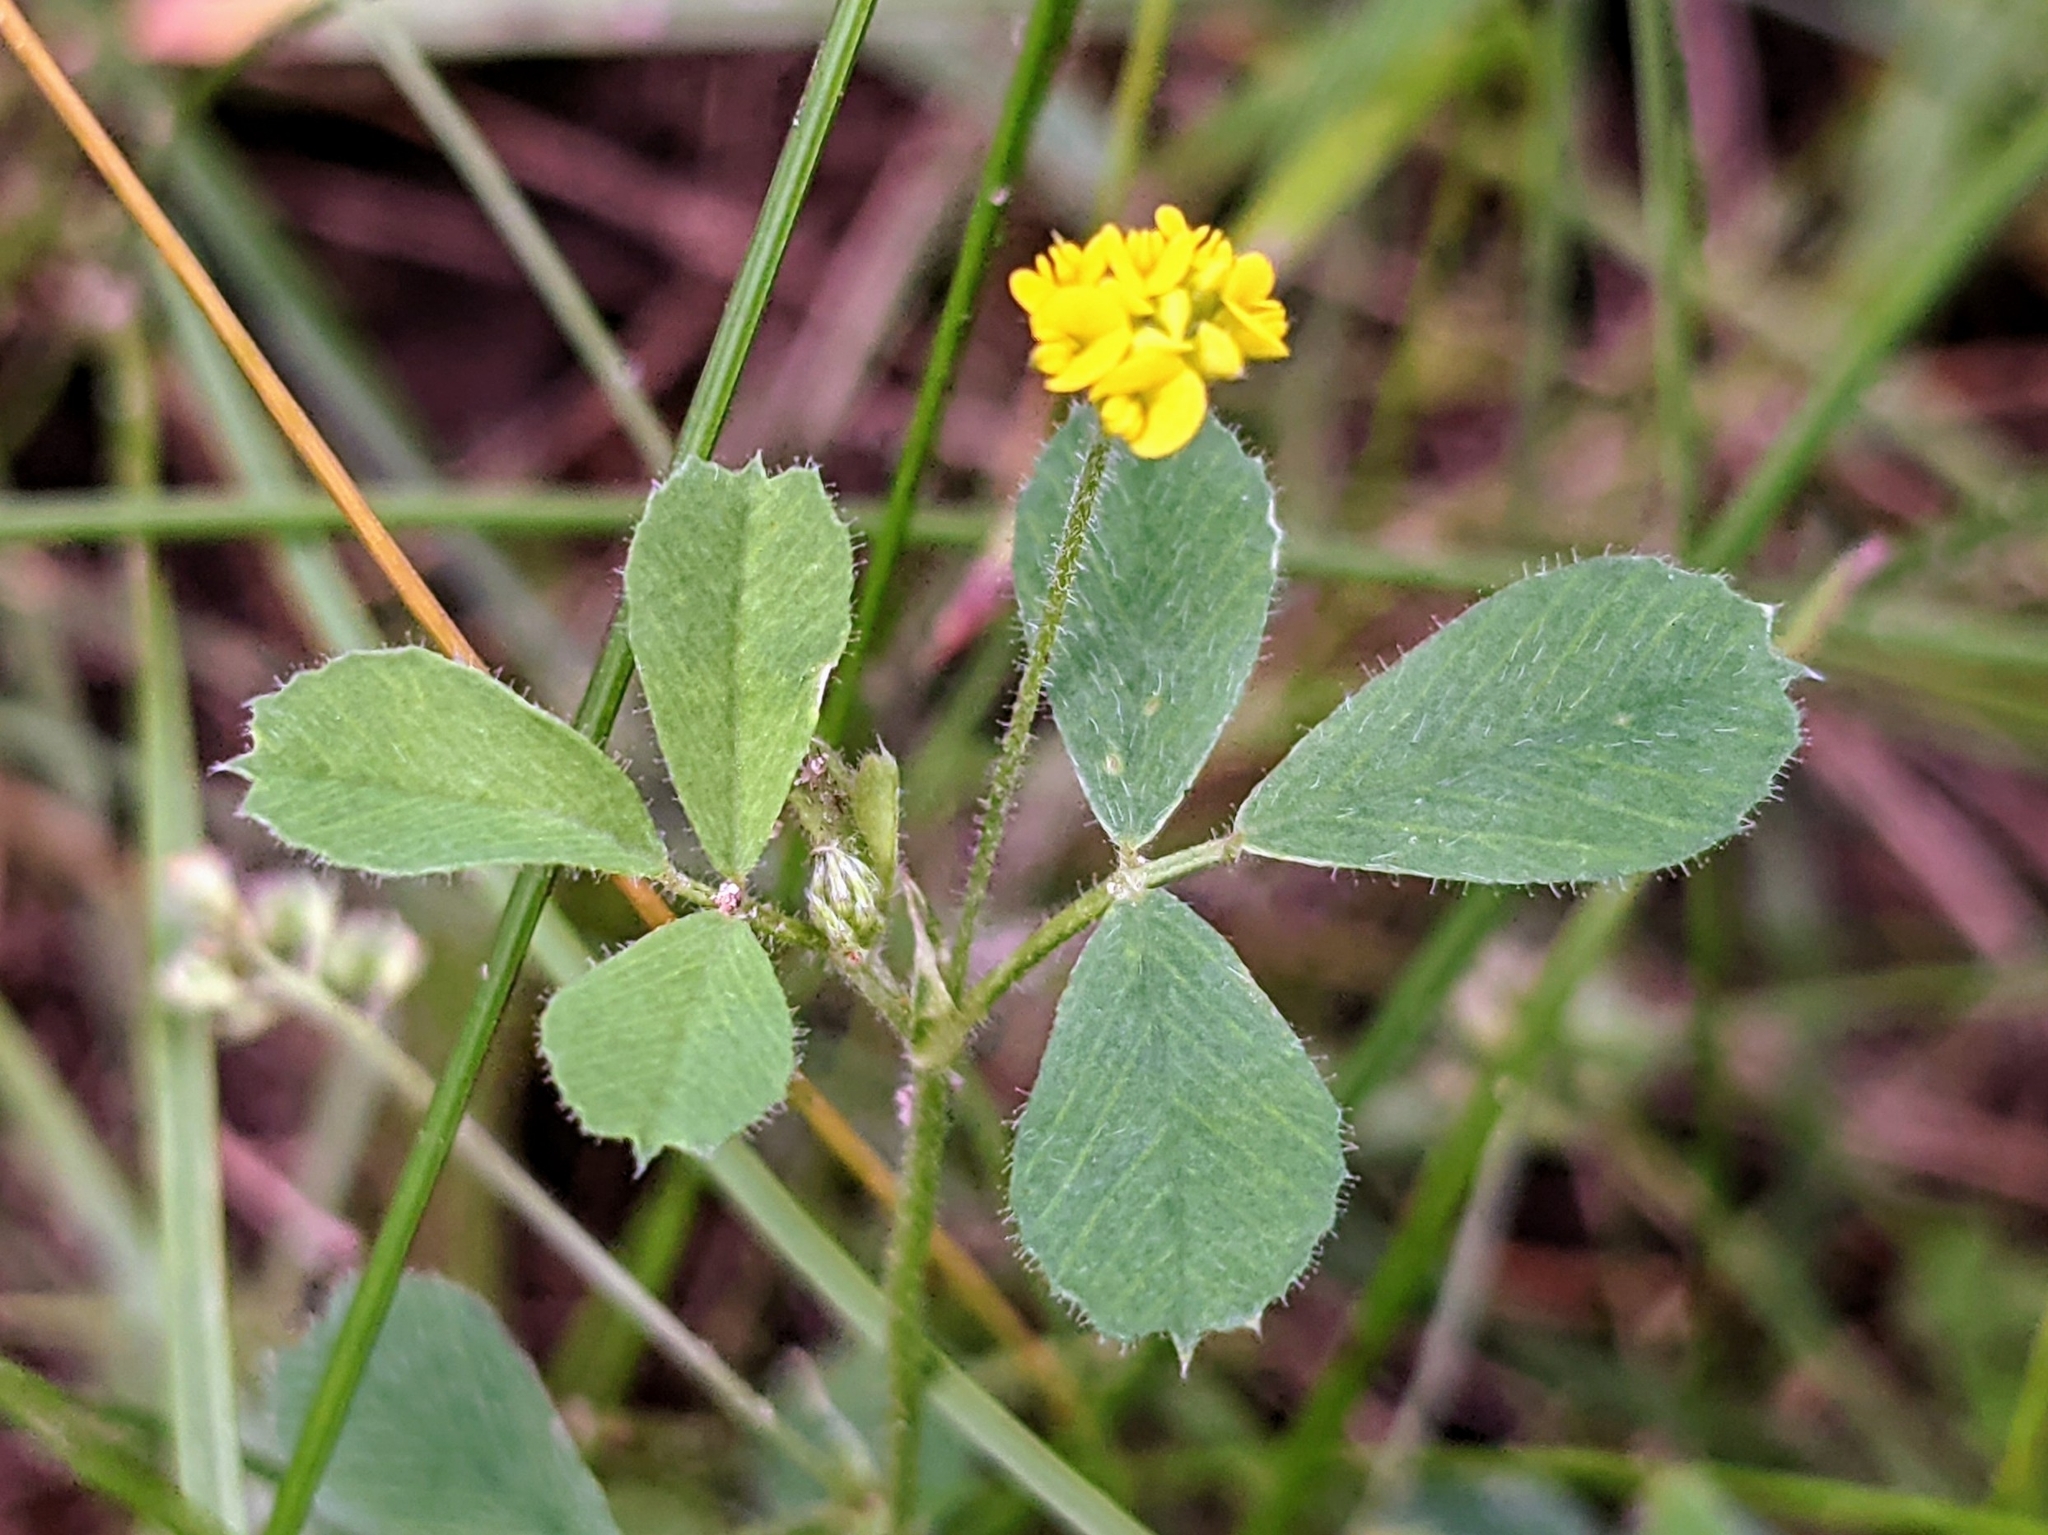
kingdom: Plantae
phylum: Tracheophyta
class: Magnoliopsida
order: Fabales
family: Fabaceae
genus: Medicago
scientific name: Medicago lupulina
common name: Black medick
